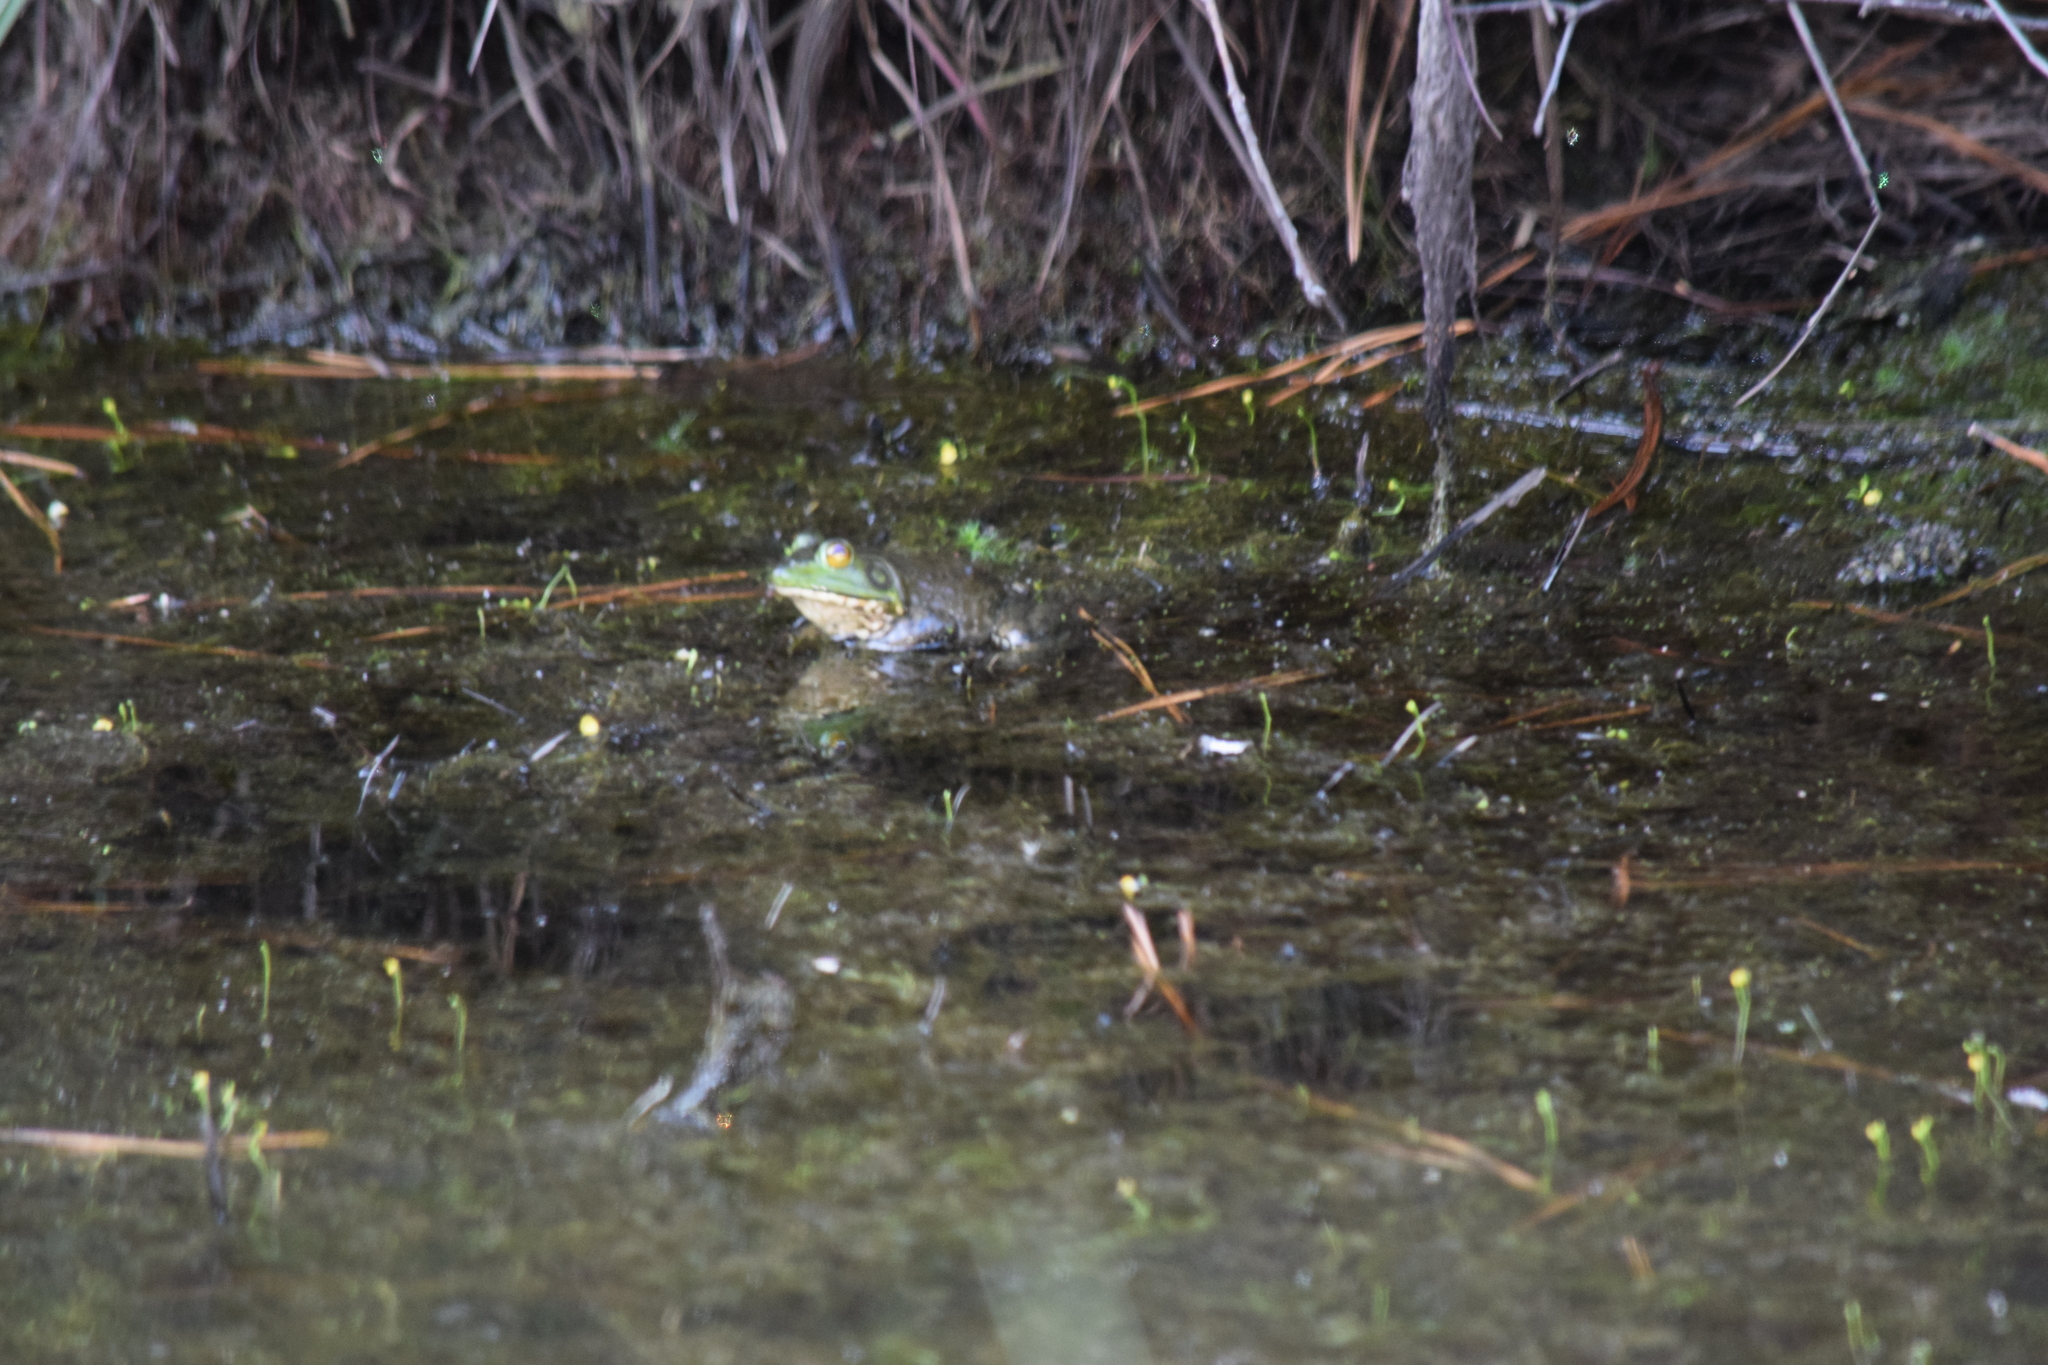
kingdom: Animalia
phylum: Chordata
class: Amphibia
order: Anura
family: Ranidae
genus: Lithobates
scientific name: Lithobates catesbeianus
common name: American bullfrog
